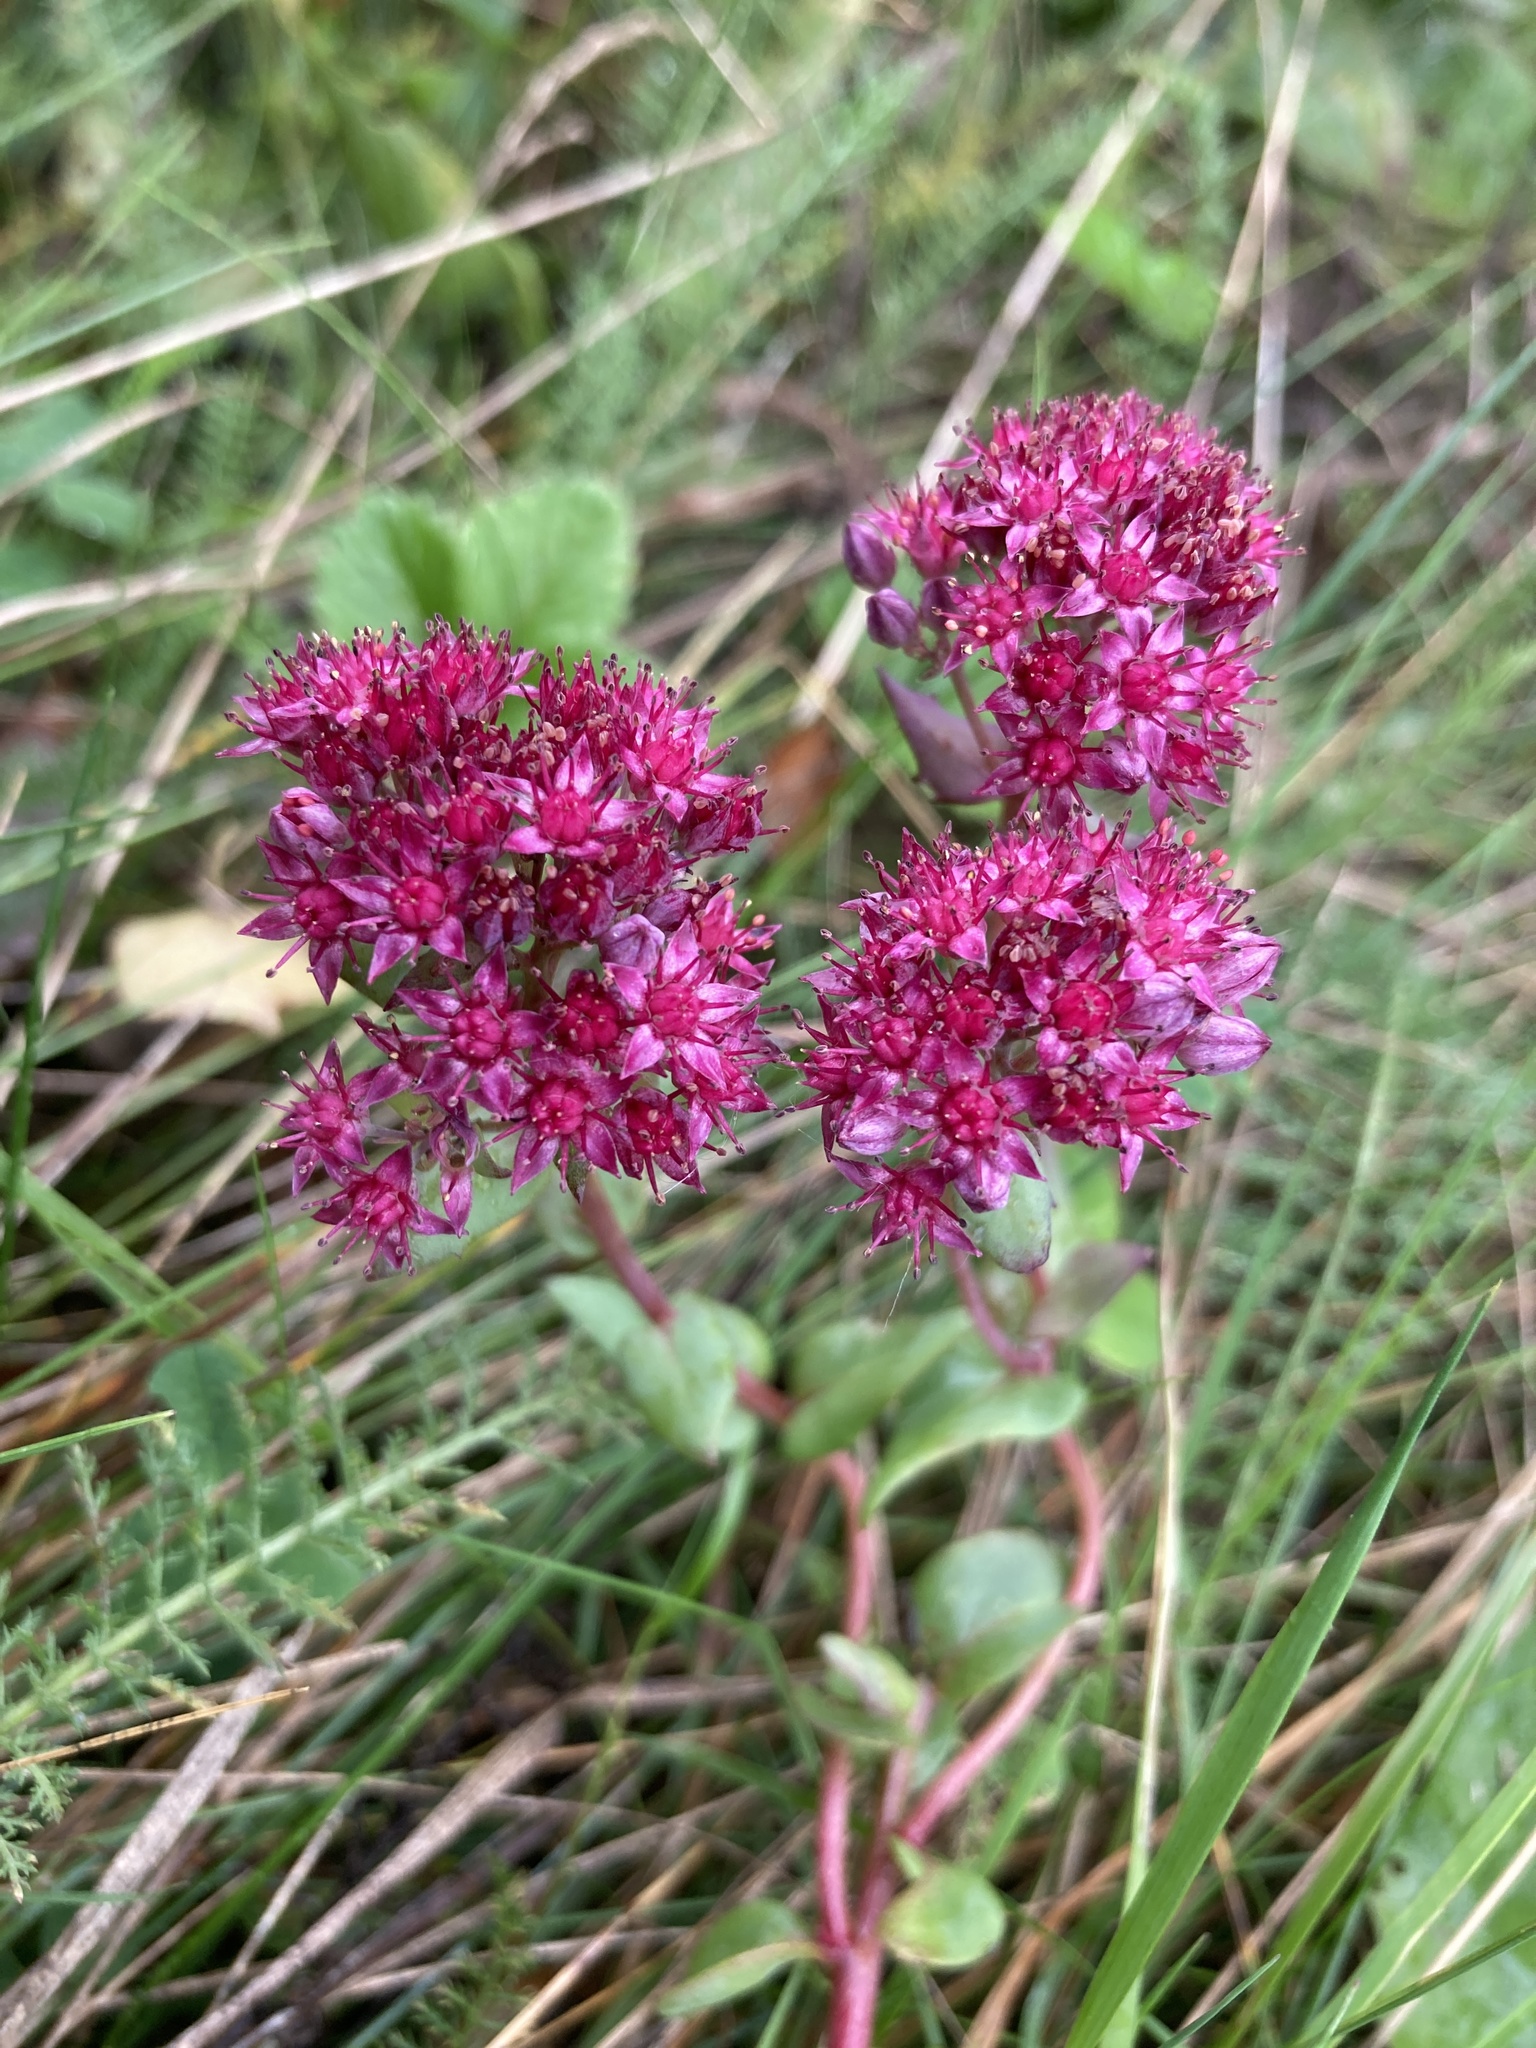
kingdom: Plantae
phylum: Tracheophyta
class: Magnoliopsida
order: Saxifragales
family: Crassulaceae
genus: Hylotelephium
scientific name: Hylotelephium telephium
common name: Live-forever
